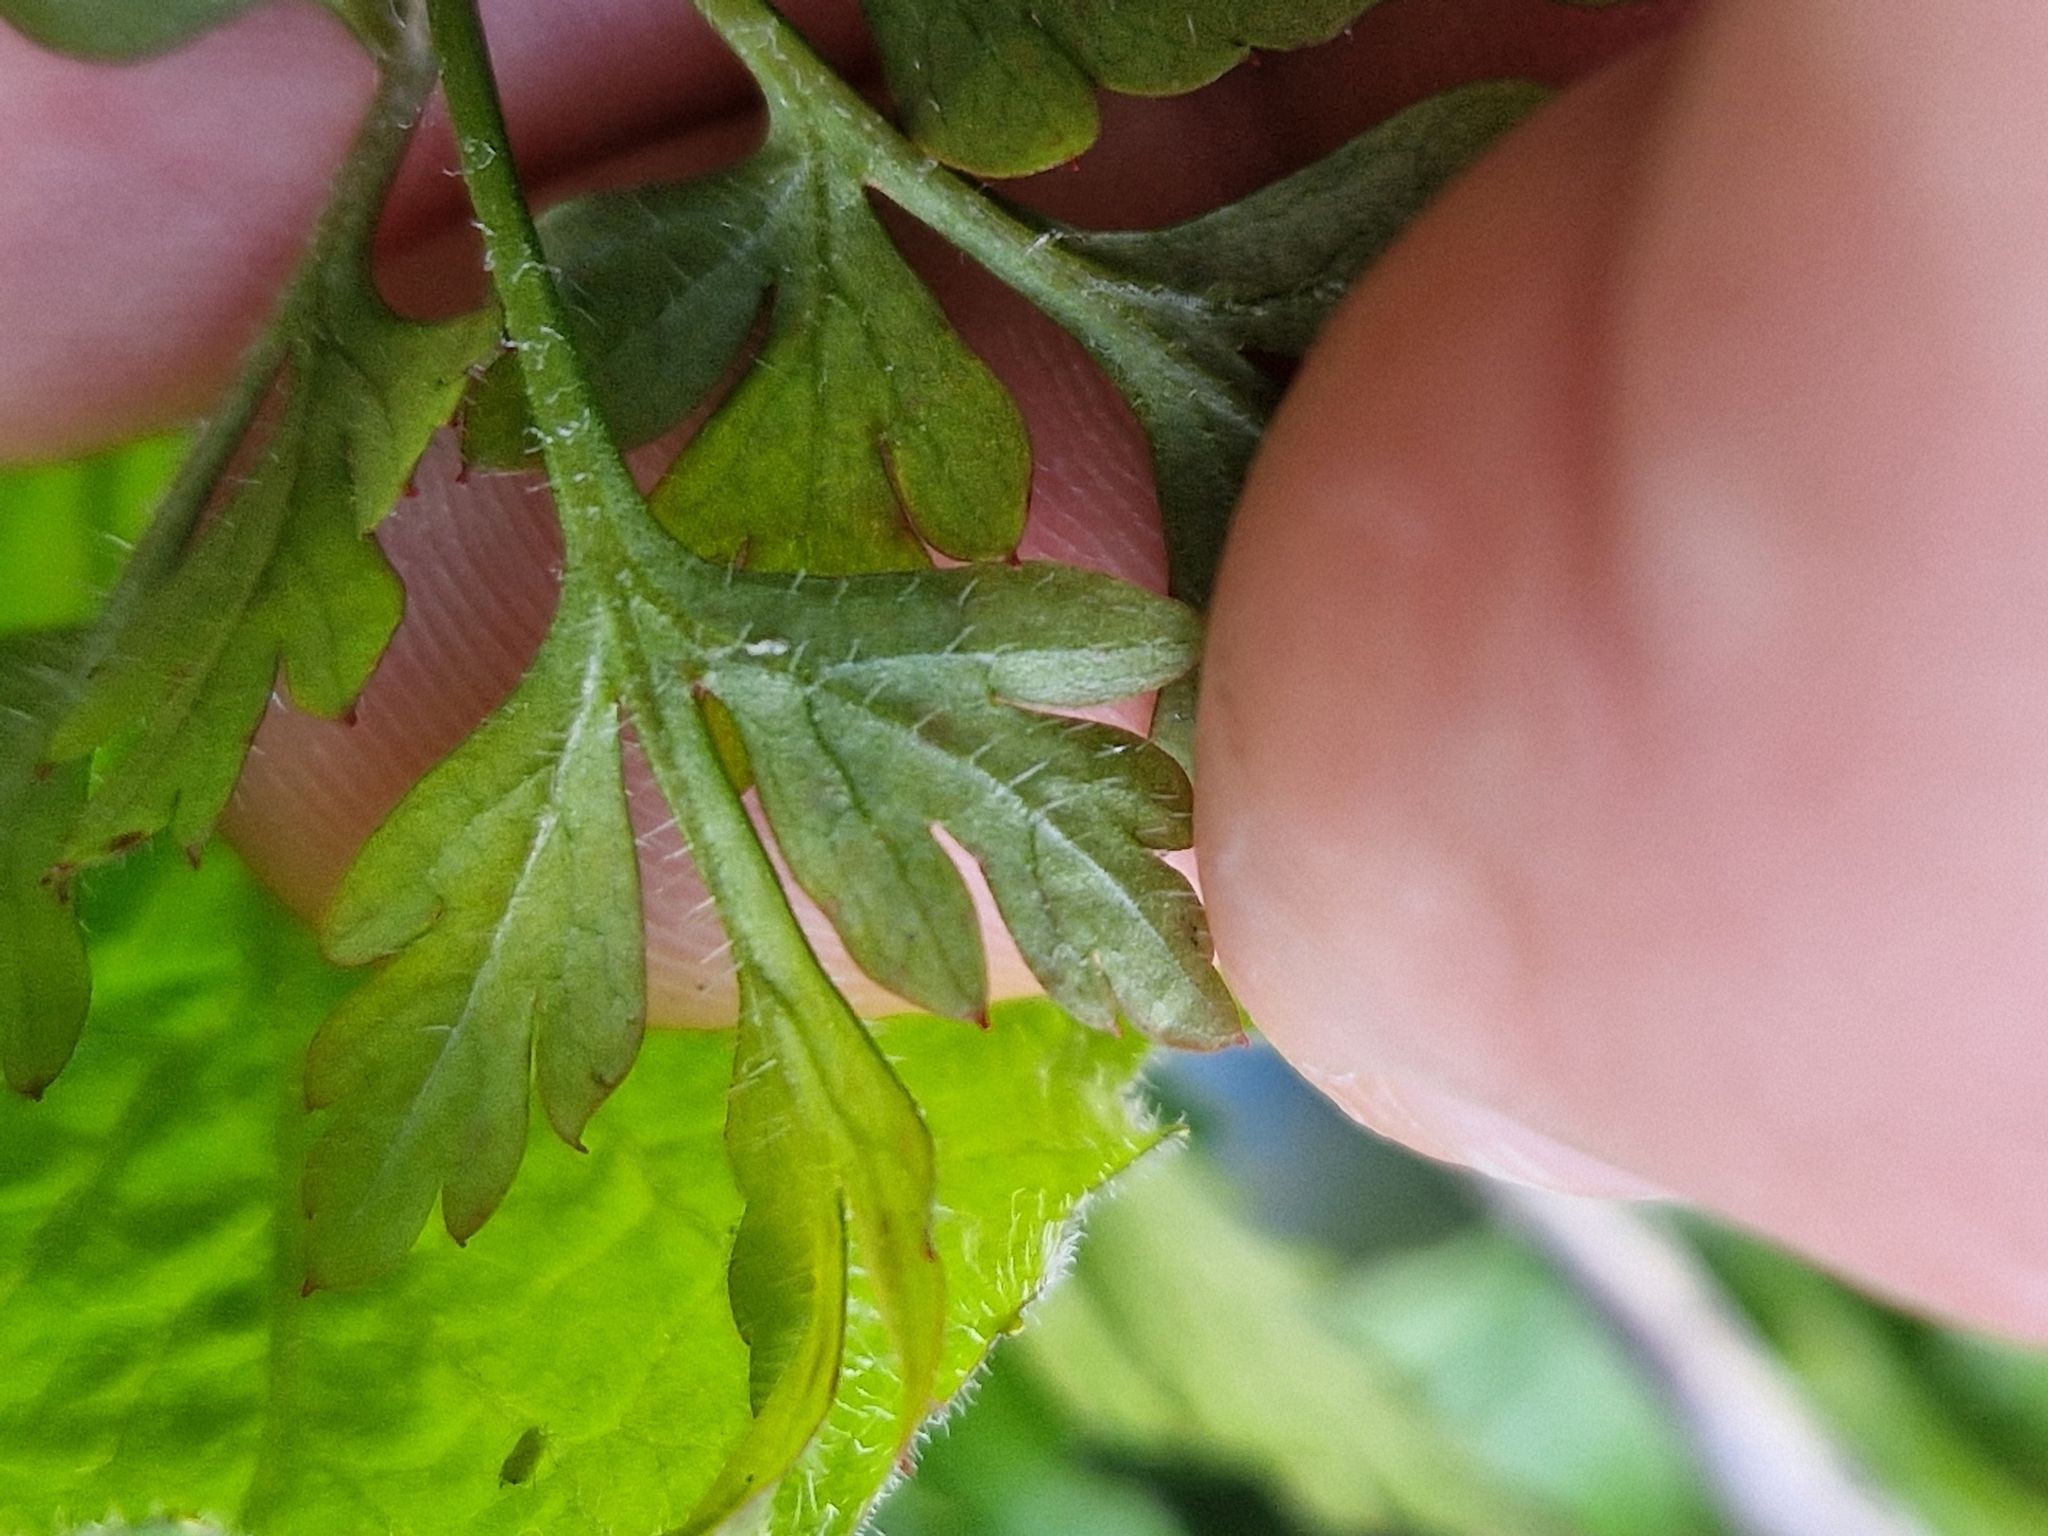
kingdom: Fungi
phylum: Ascomycota
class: Dothideomycetes
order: Venturiales
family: Venturiaceae
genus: Coleroa
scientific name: Coleroa robertiani
